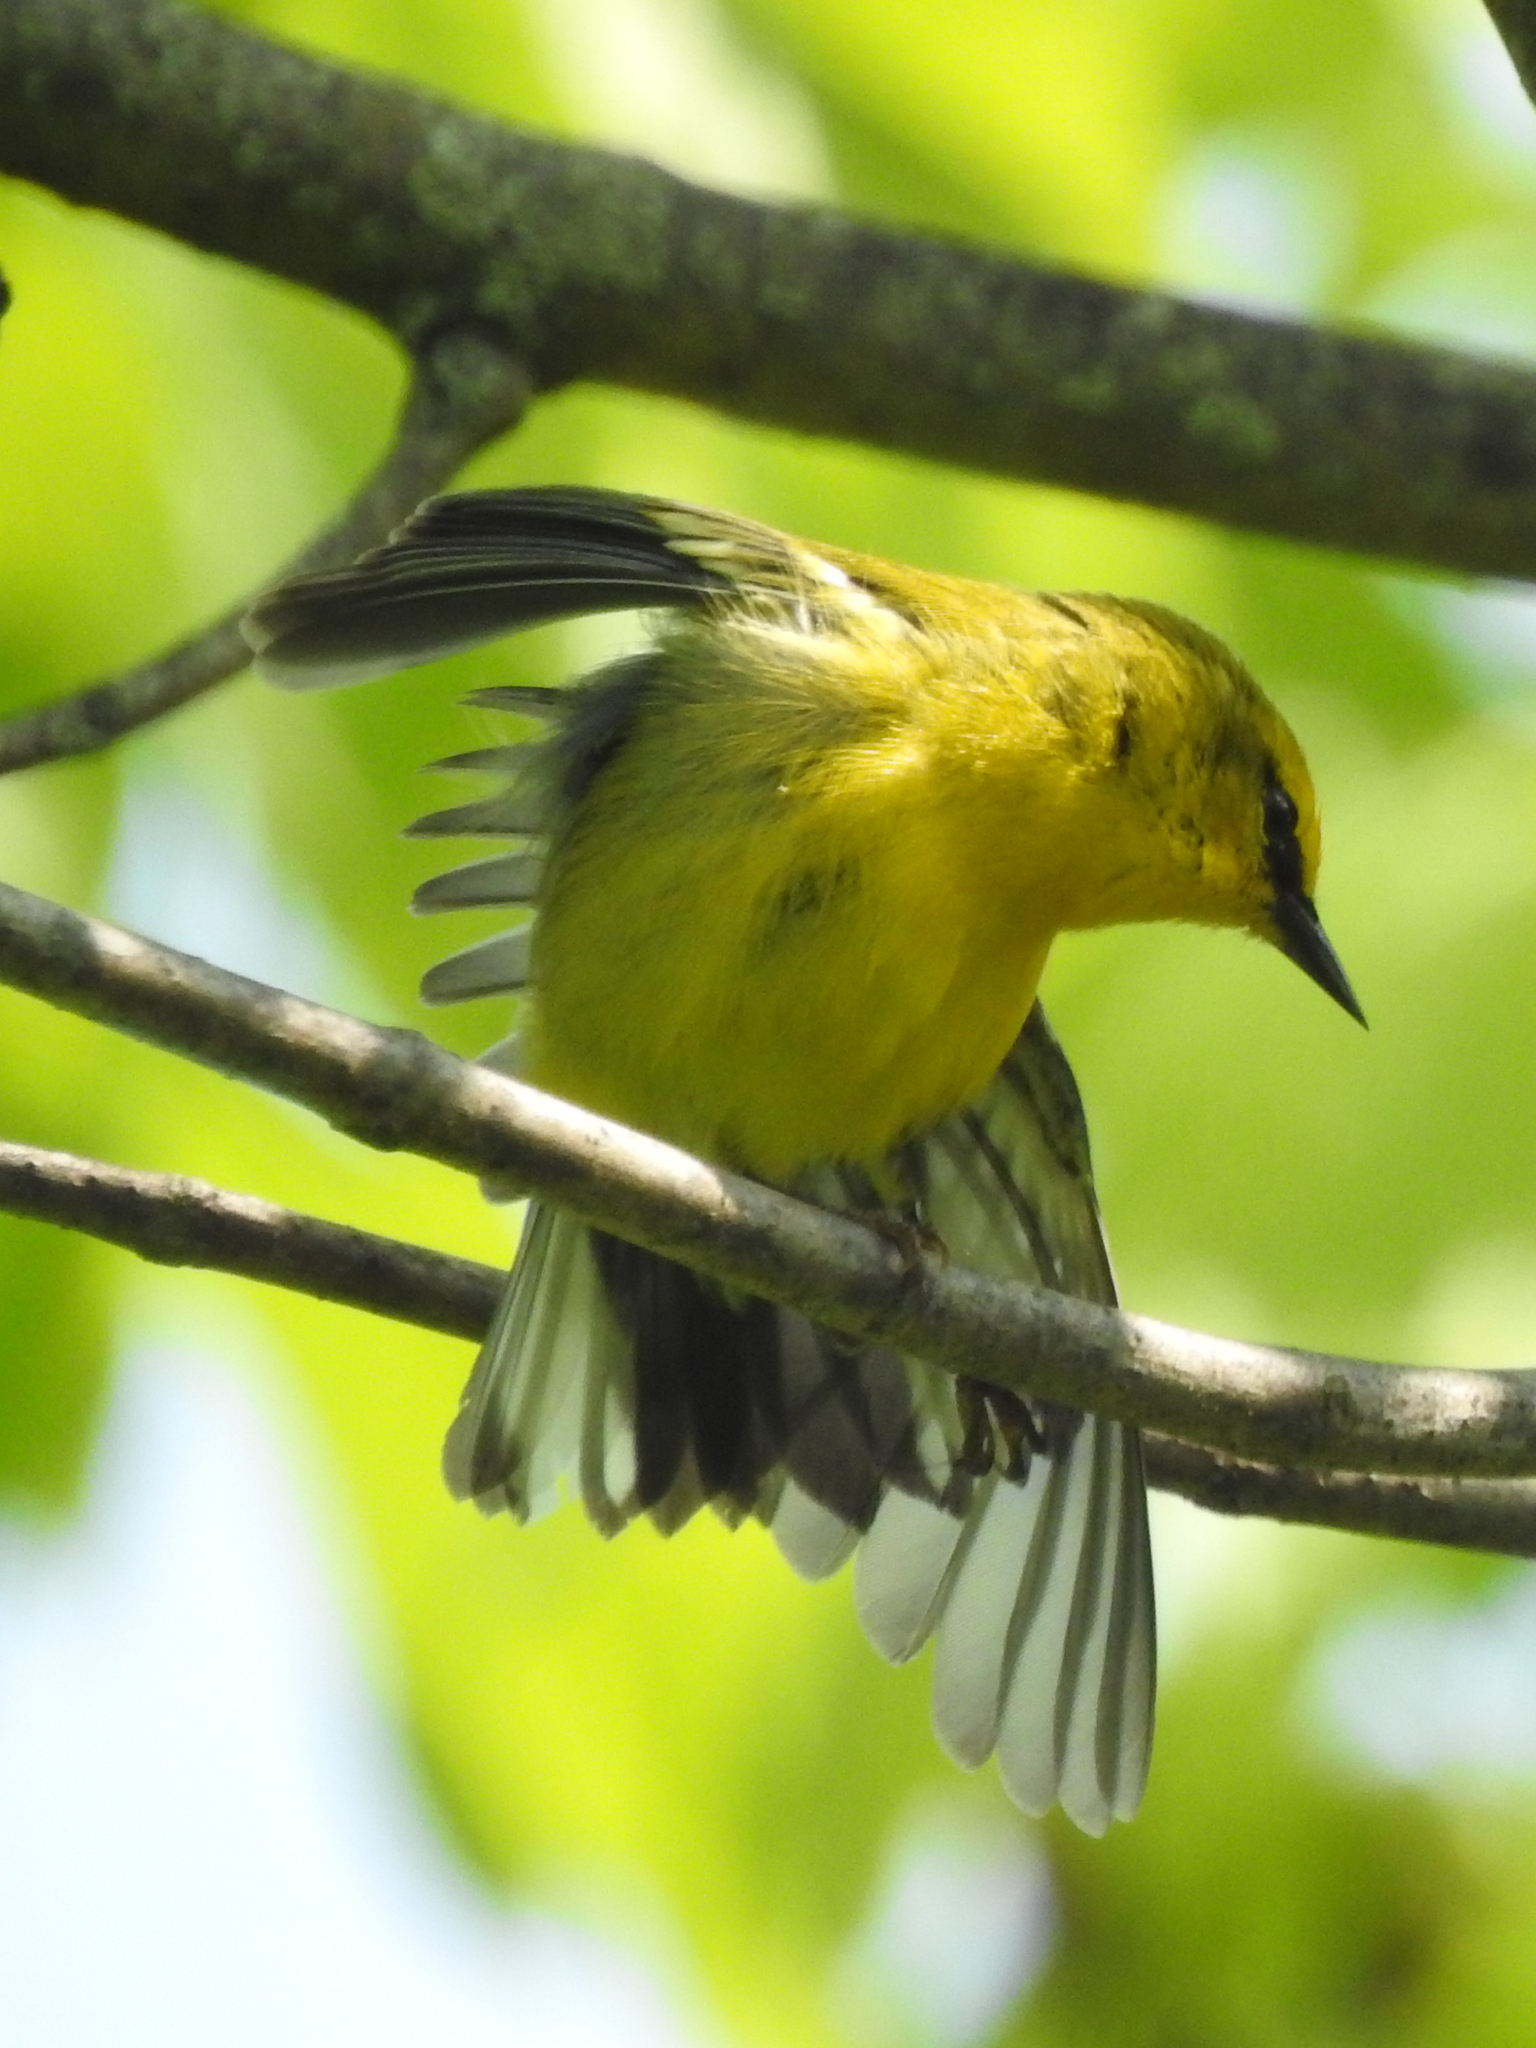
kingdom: Animalia
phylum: Chordata
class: Aves
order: Passeriformes
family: Parulidae
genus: Vermivora
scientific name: Vermivora cyanoptera
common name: Blue-winged warbler
